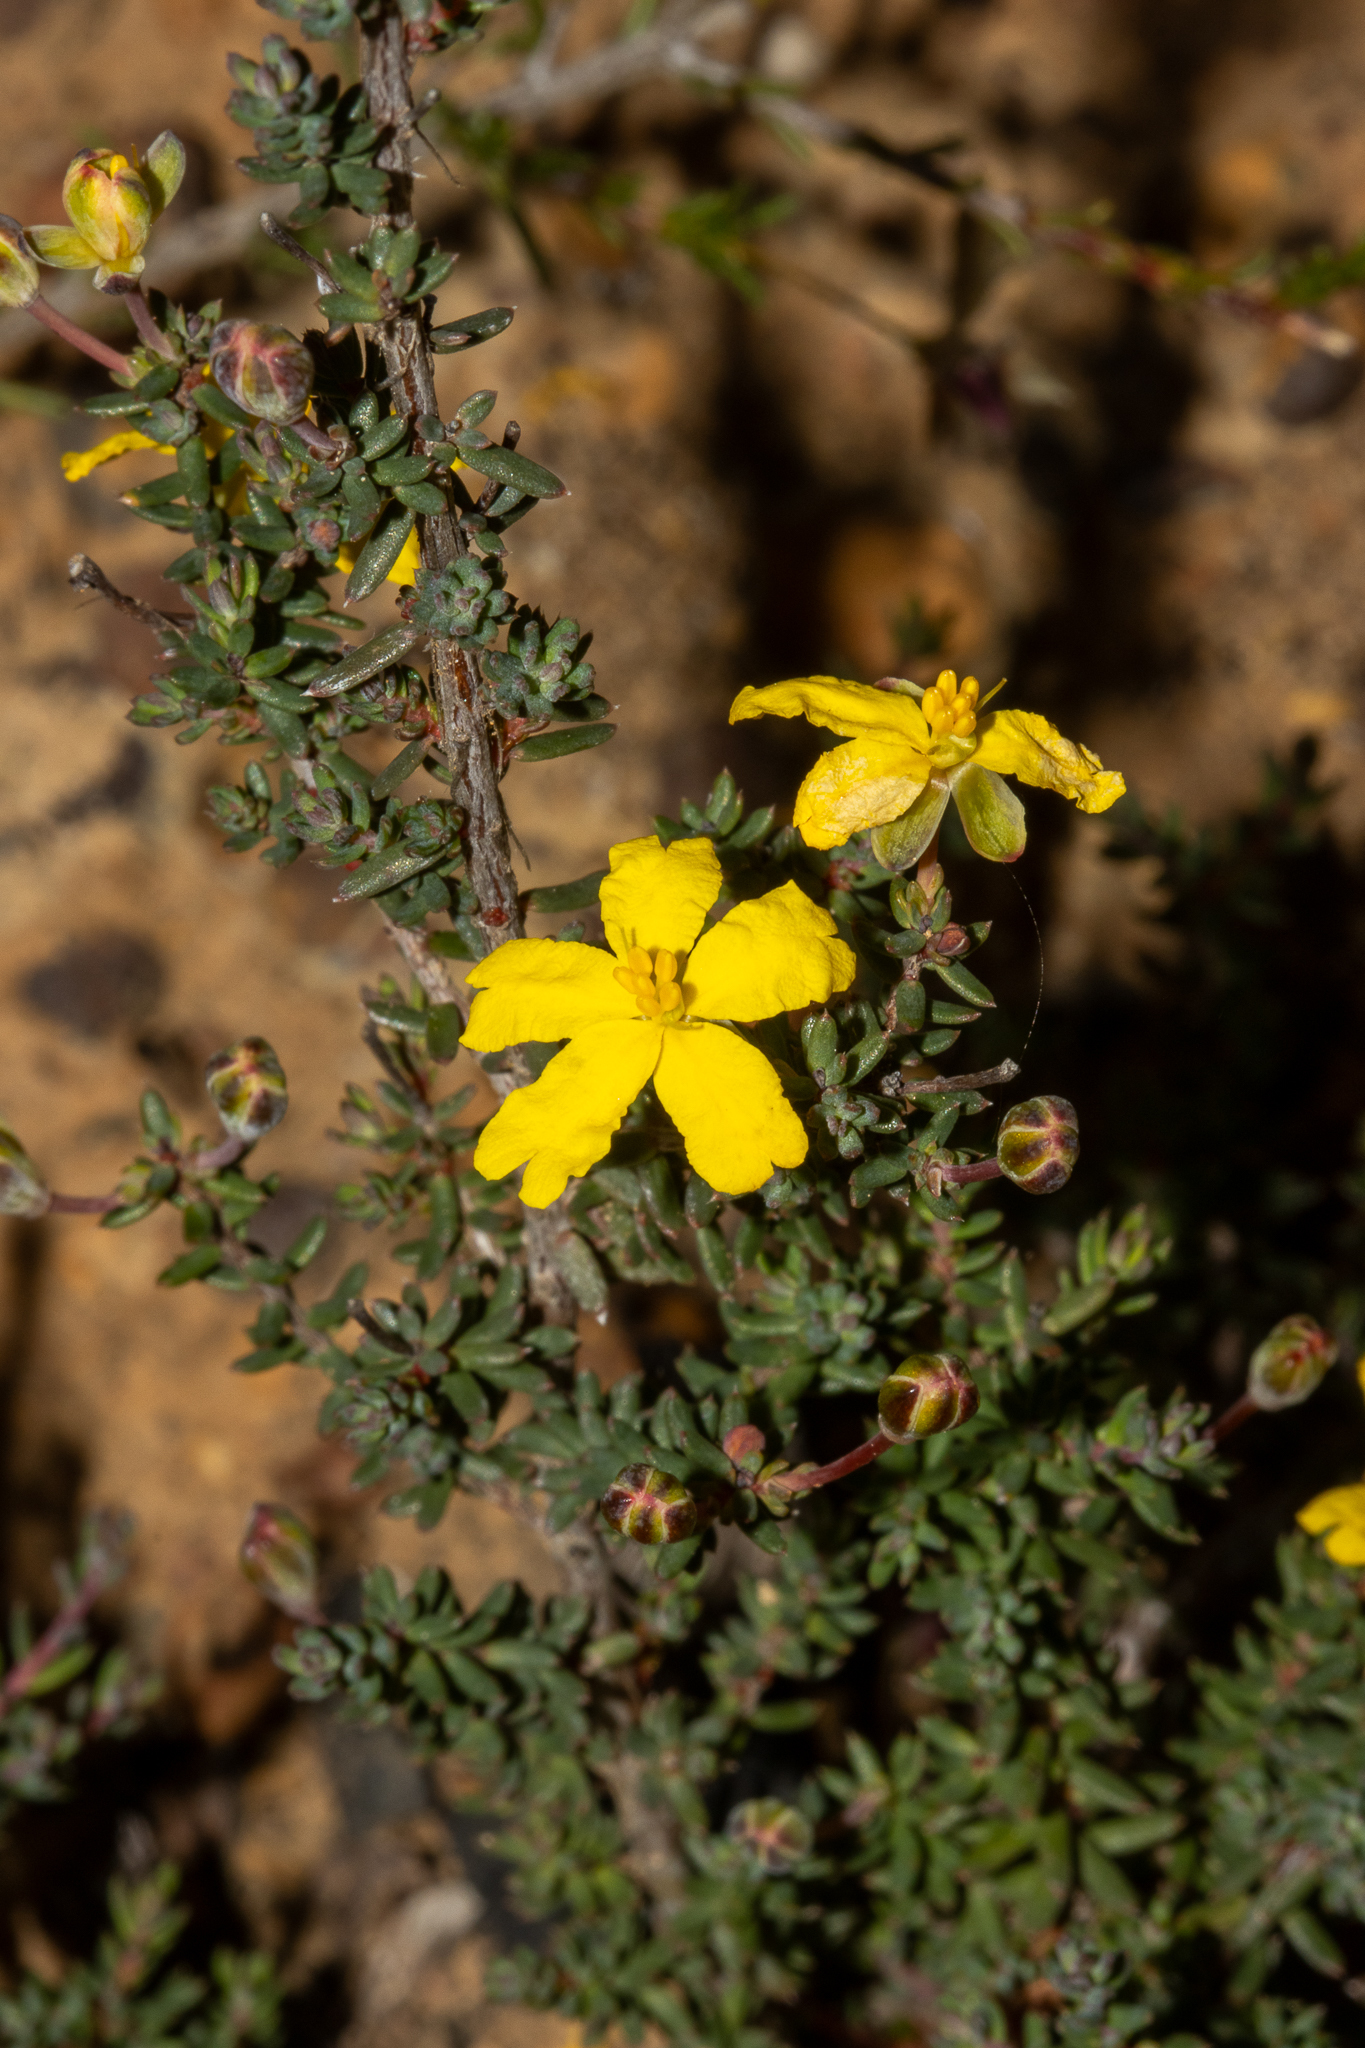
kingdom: Plantae
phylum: Tracheophyta
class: Magnoliopsida
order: Dilleniales
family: Dilleniaceae
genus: Hibbertia
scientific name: Hibbertia obtusibracteata
